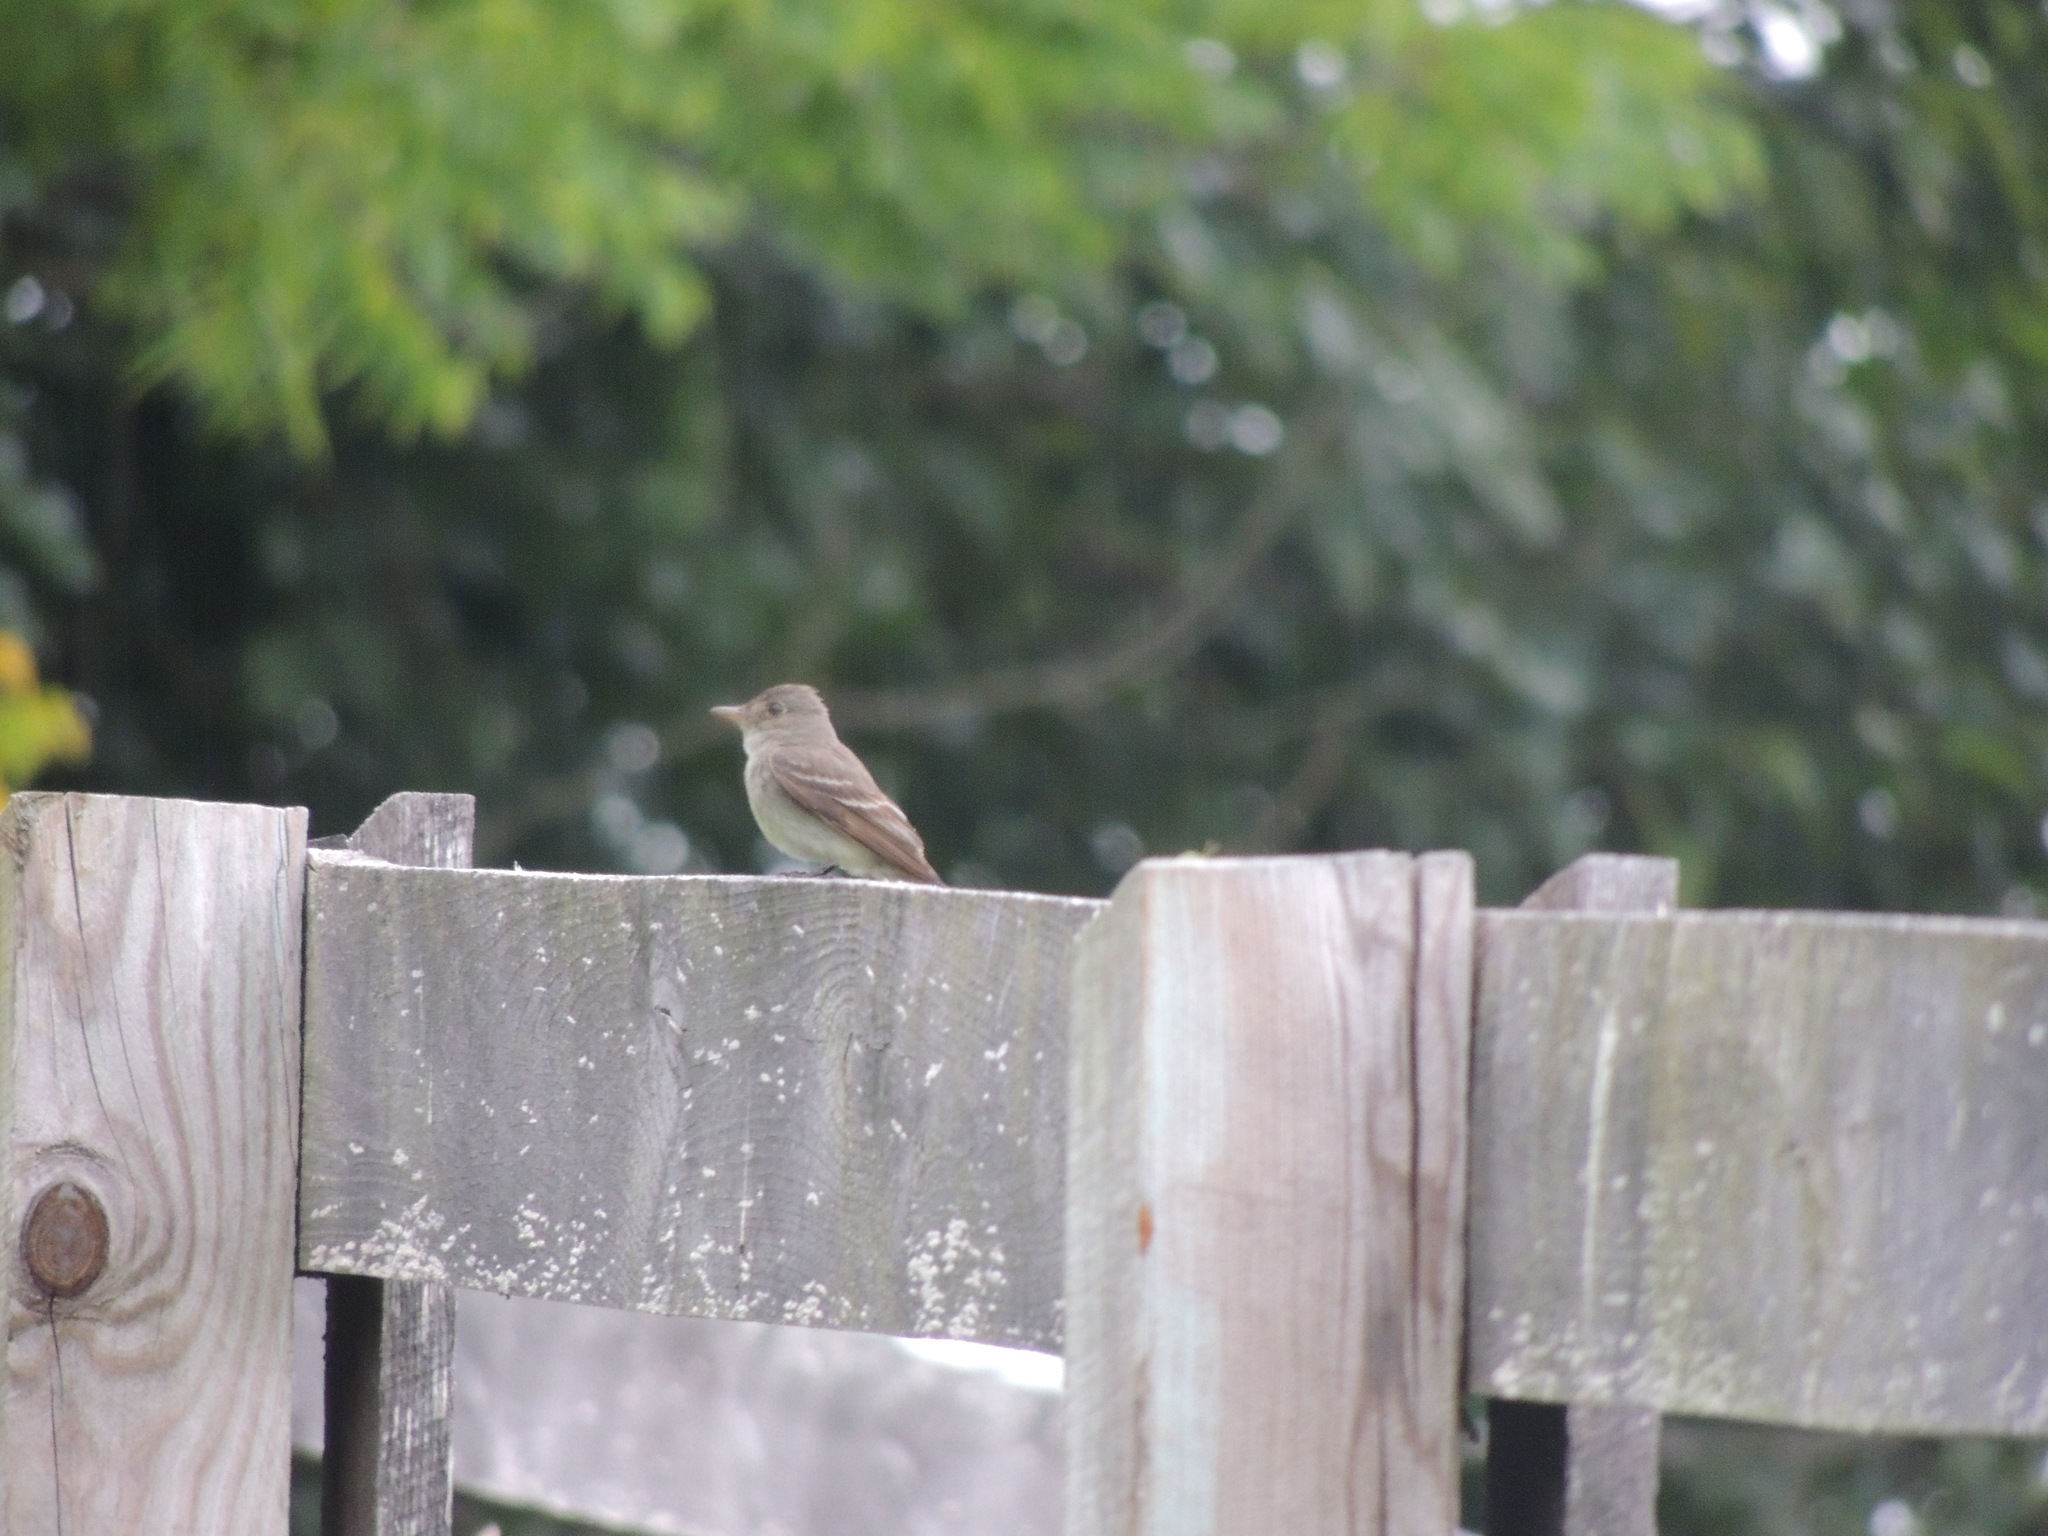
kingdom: Animalia
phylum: Chordata
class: Aves
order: Passeriformes
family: Tyrannidae
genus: Contopus
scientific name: Contopus virens
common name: Eastern wood-pewee
